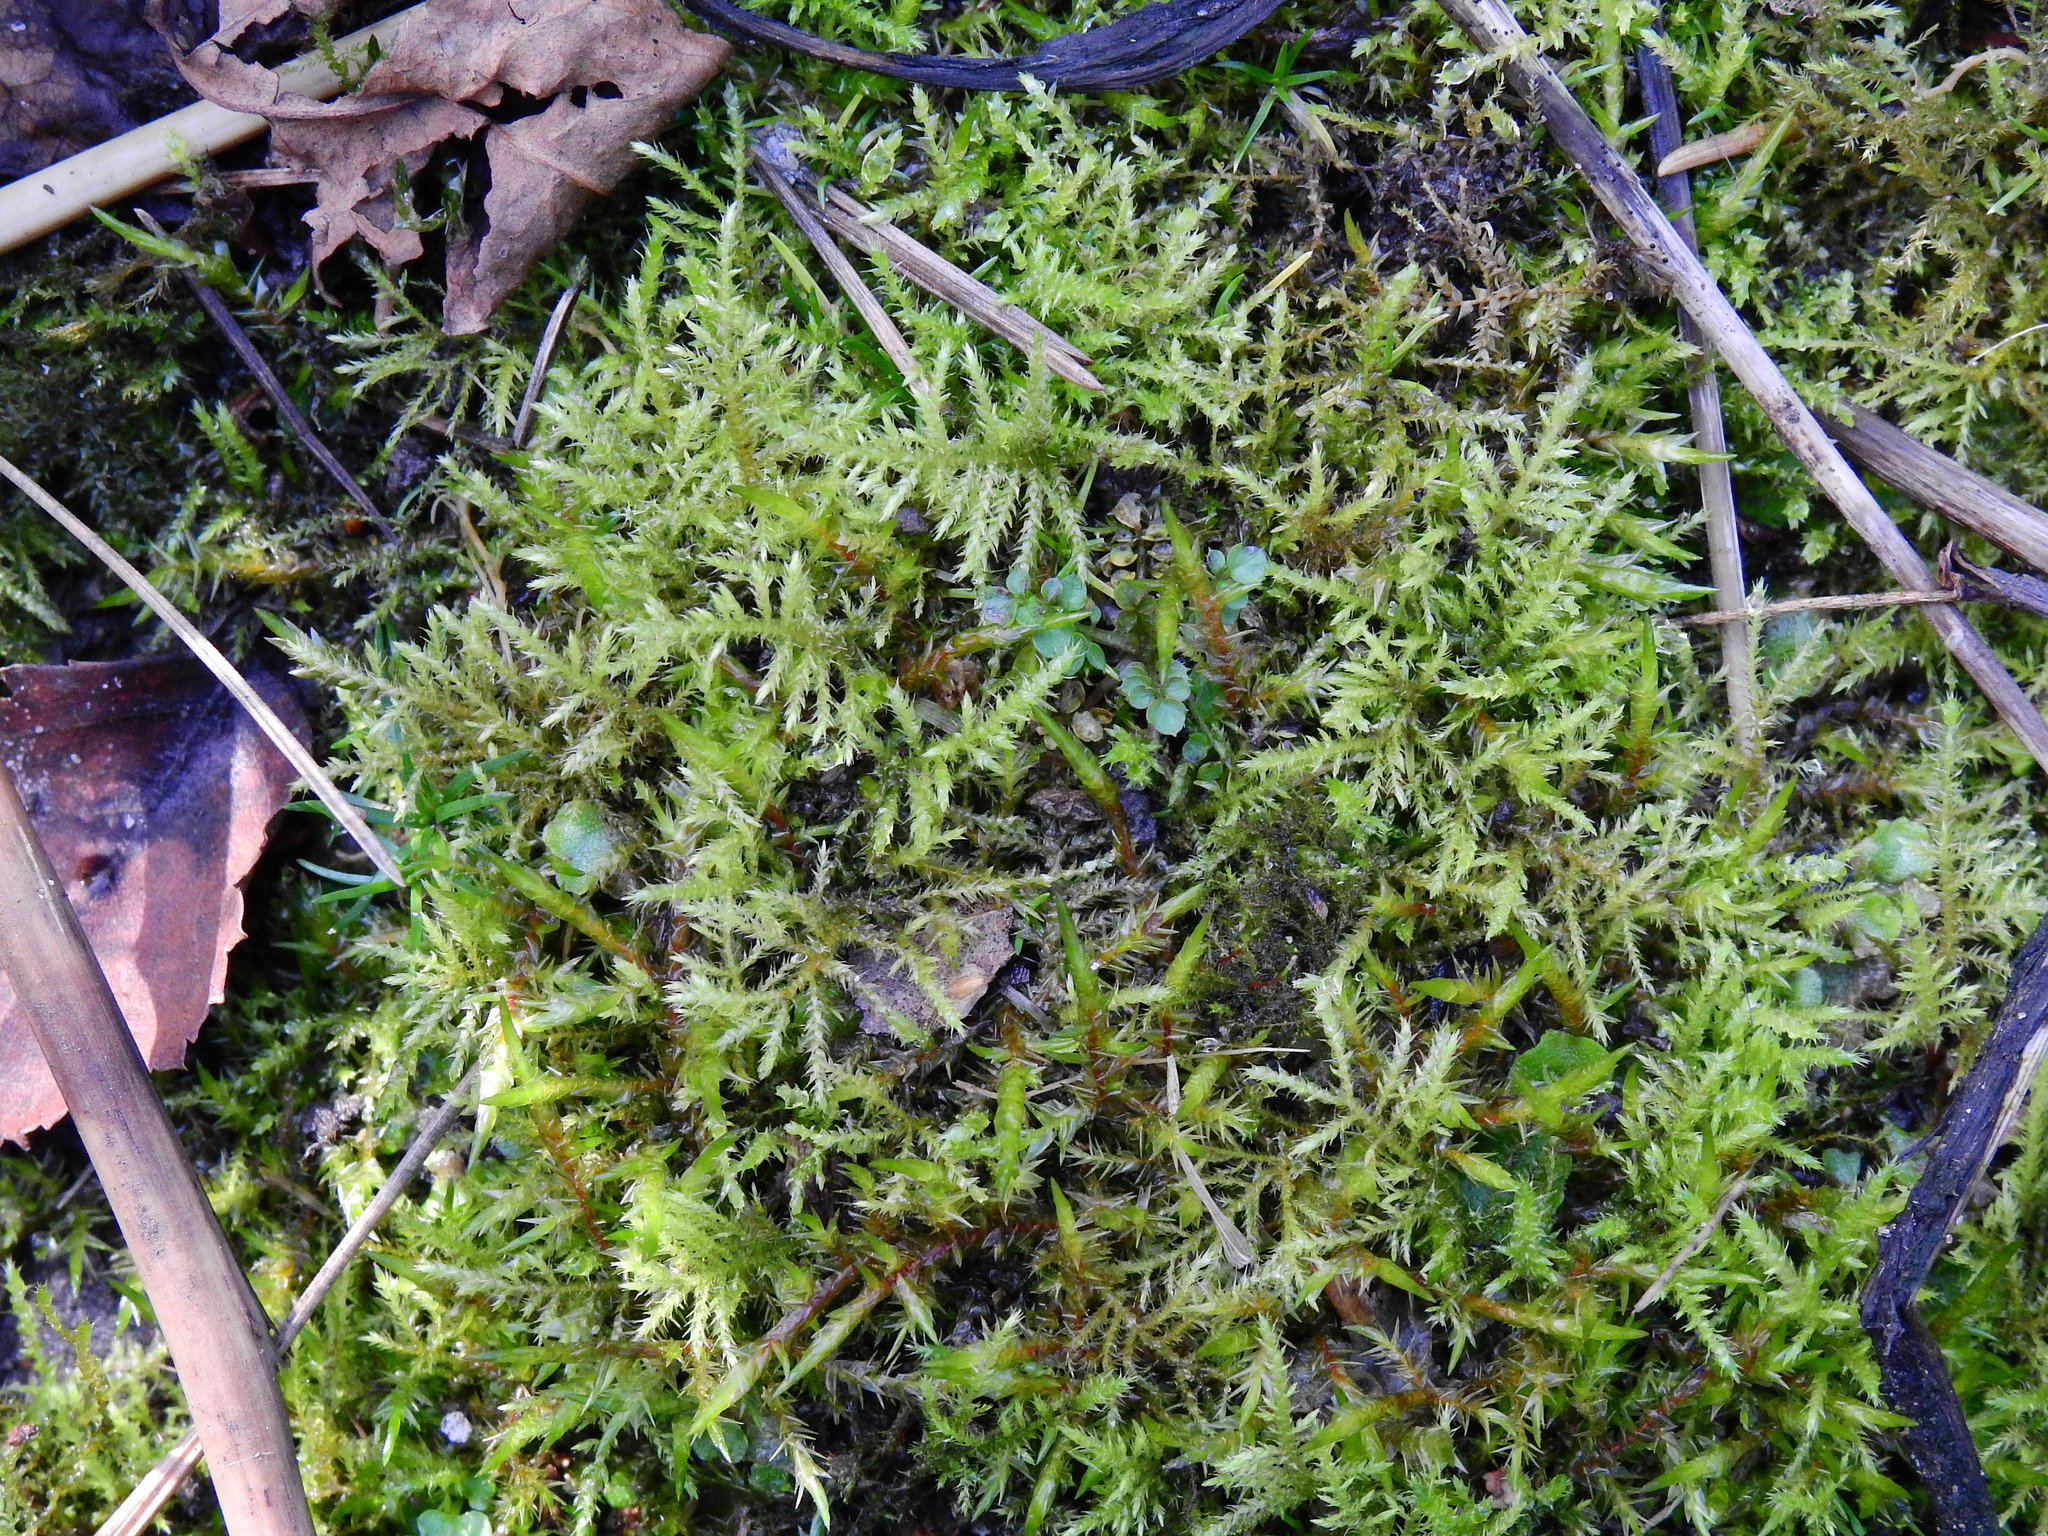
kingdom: Plantae
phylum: Bryophyta
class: Bryopsida
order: Hypnales
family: Brachytheciaceae
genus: Kindbergia
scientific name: Kindbergia praelonga
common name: Slender beaked moss
